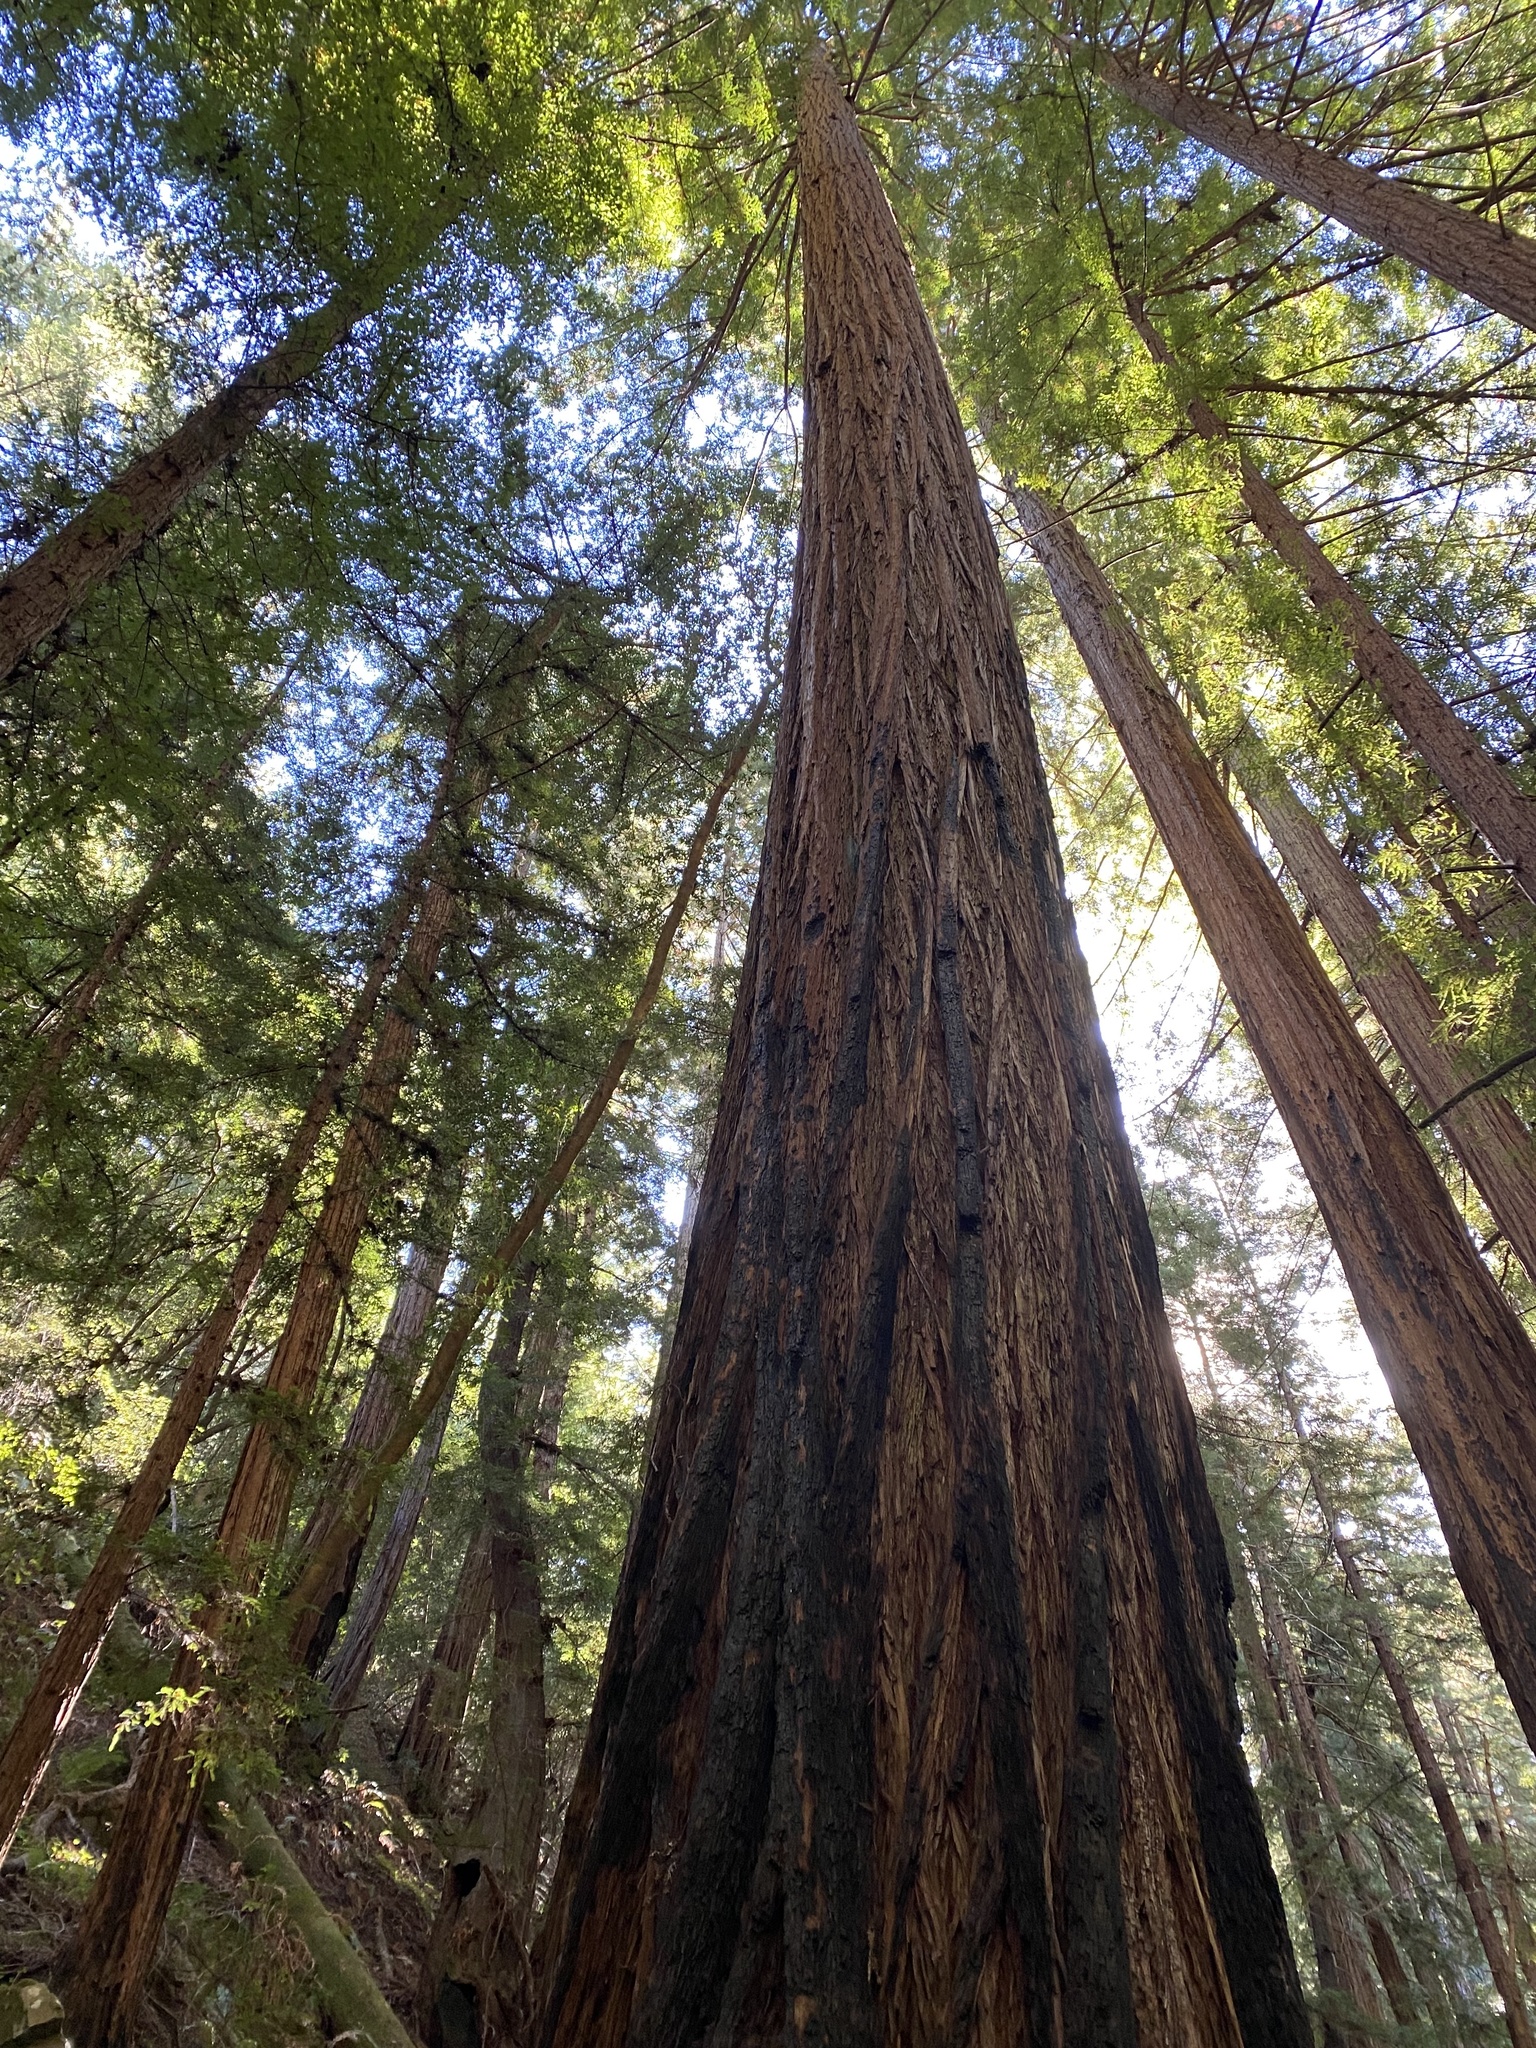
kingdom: Plantae
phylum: Tracheophyta
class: Pinopsida
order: Pinales
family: Cupressaceae
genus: Sequoia
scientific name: Sequoia sempervirens
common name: Coast redwood
